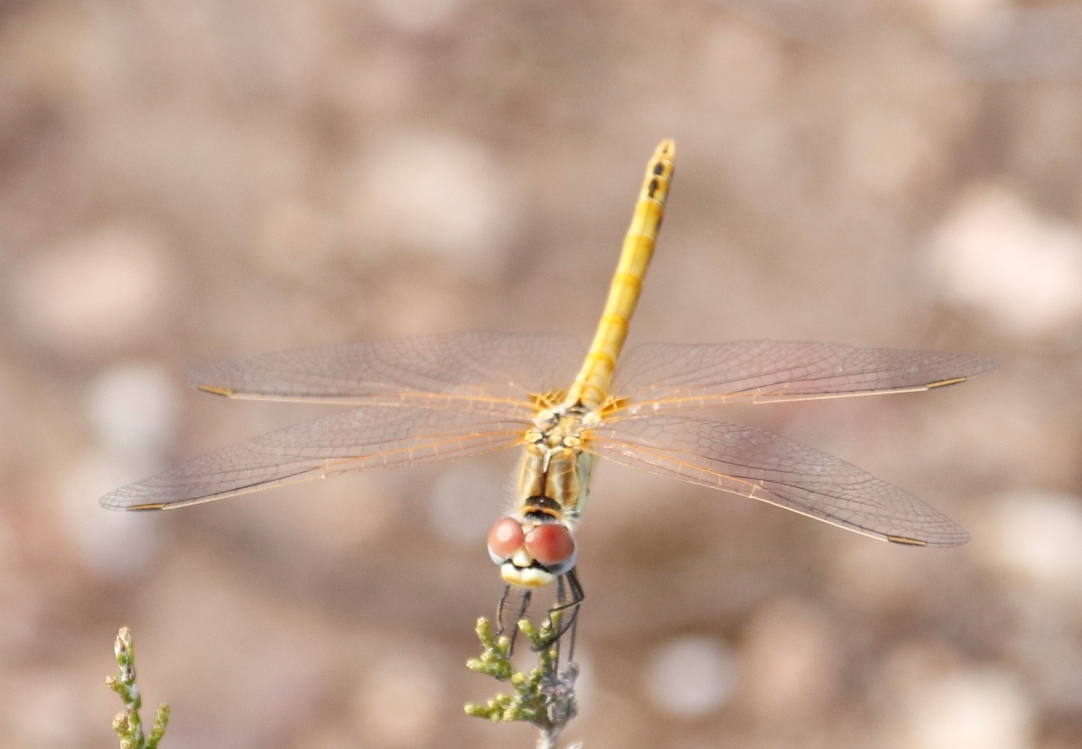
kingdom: Animalia
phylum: Arthropoda
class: Insecta
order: Odonata
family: Libellulidae
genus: Sympetrum
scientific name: Sympetrum fonscolombii
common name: Red-veined darter
